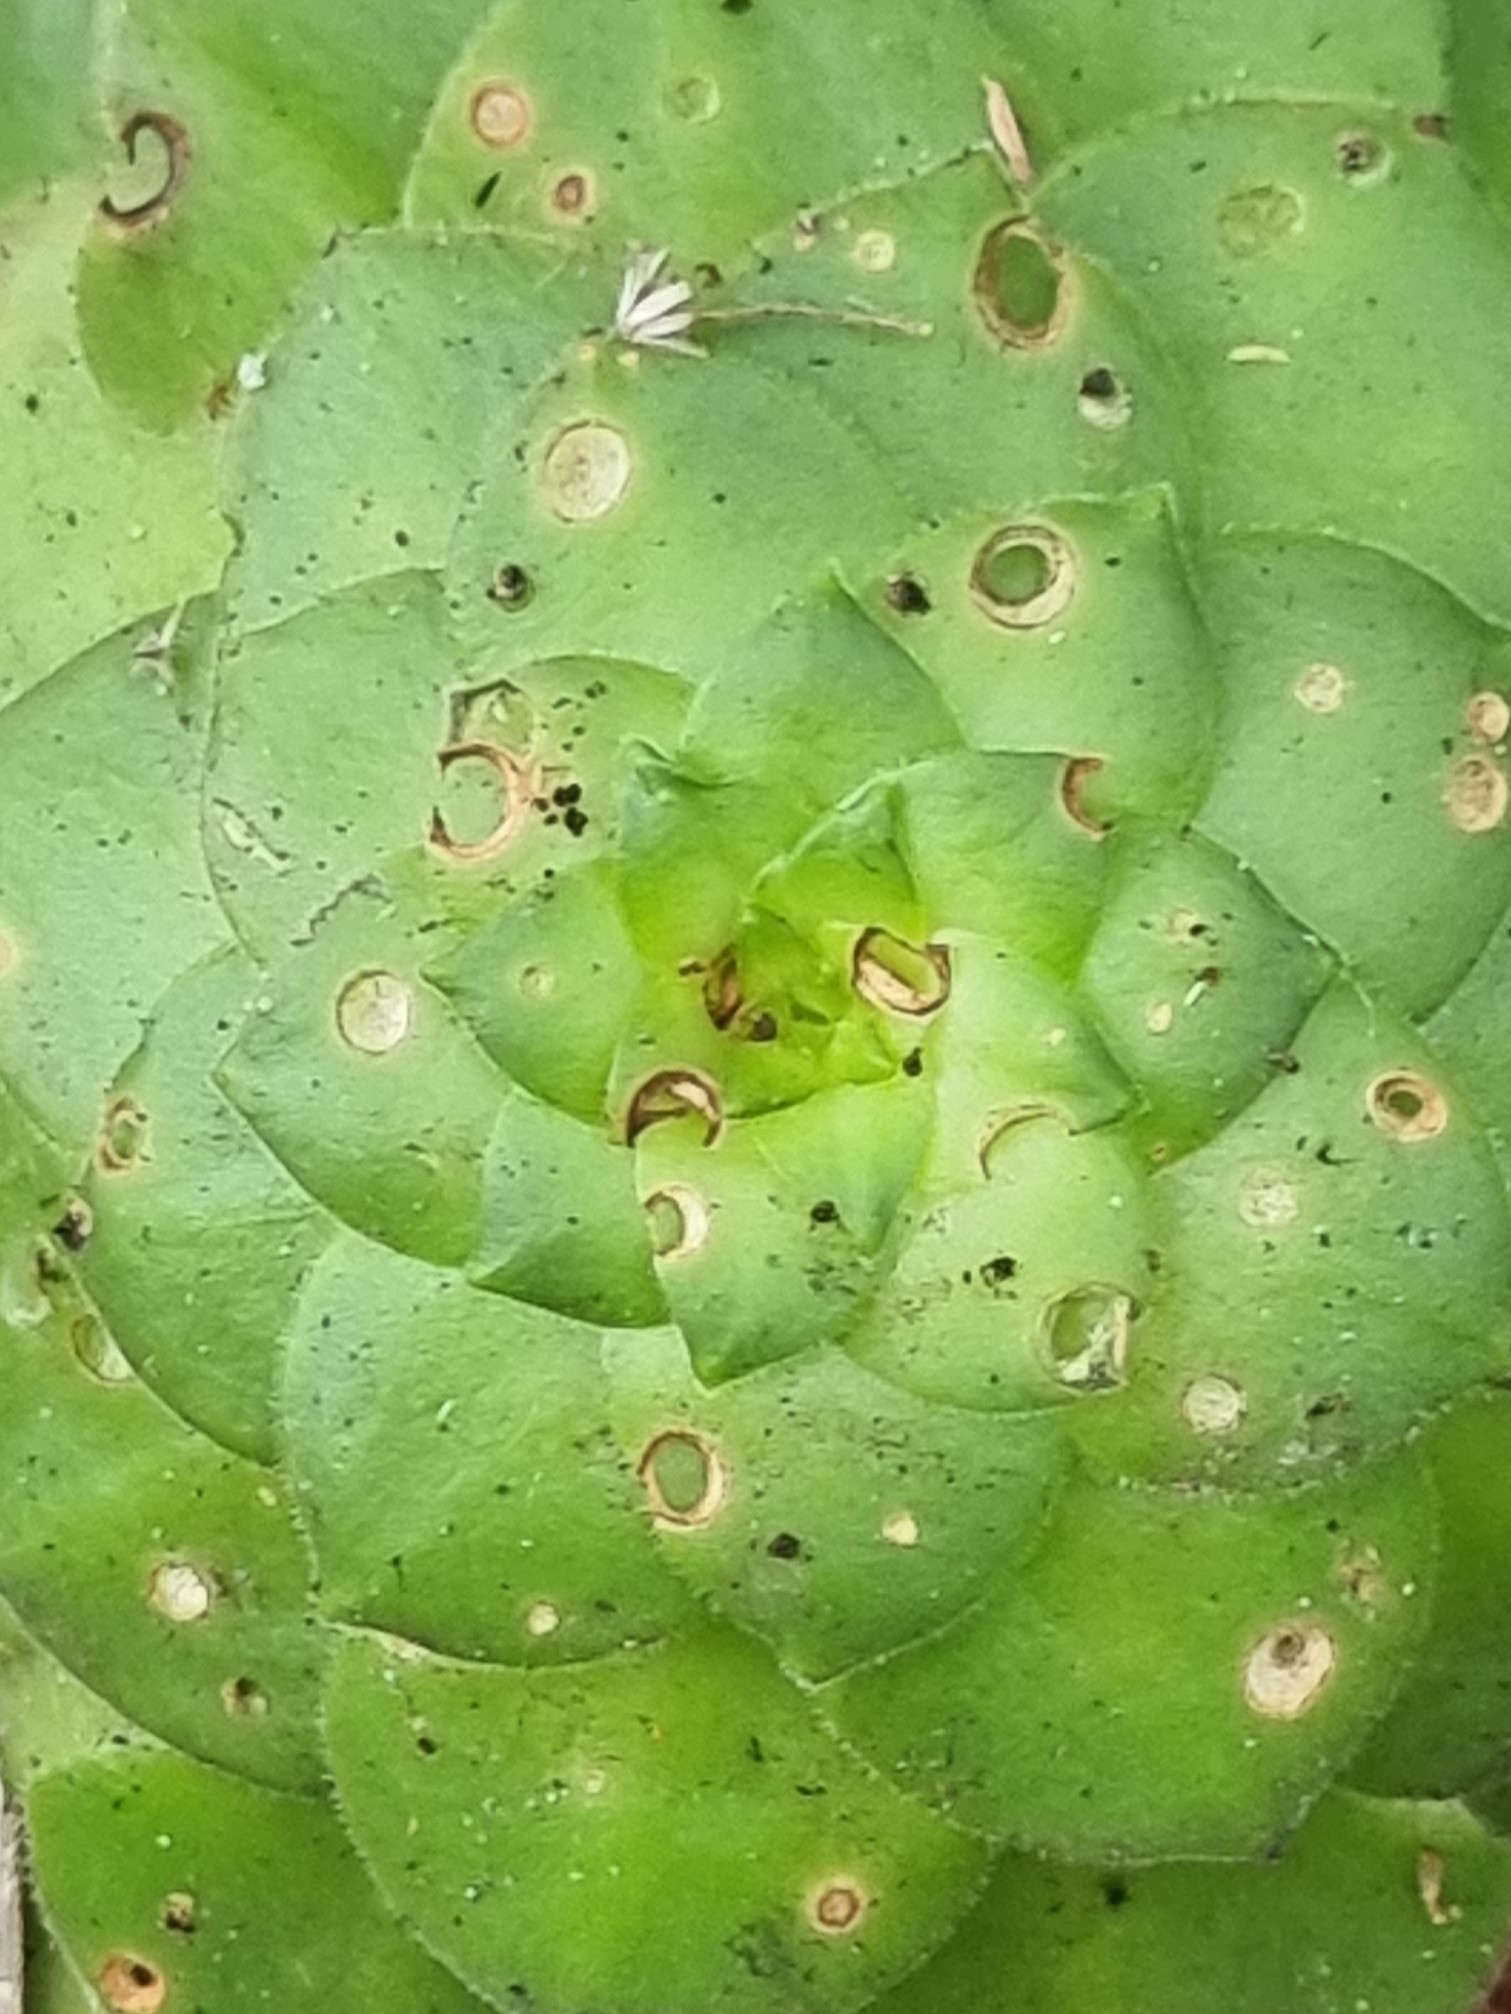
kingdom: Plantae
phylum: Tracheophyta
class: Magnoliopsida
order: Saxifragales
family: Crassulaceae
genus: Aeonium
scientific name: Aeonium glandulosum
